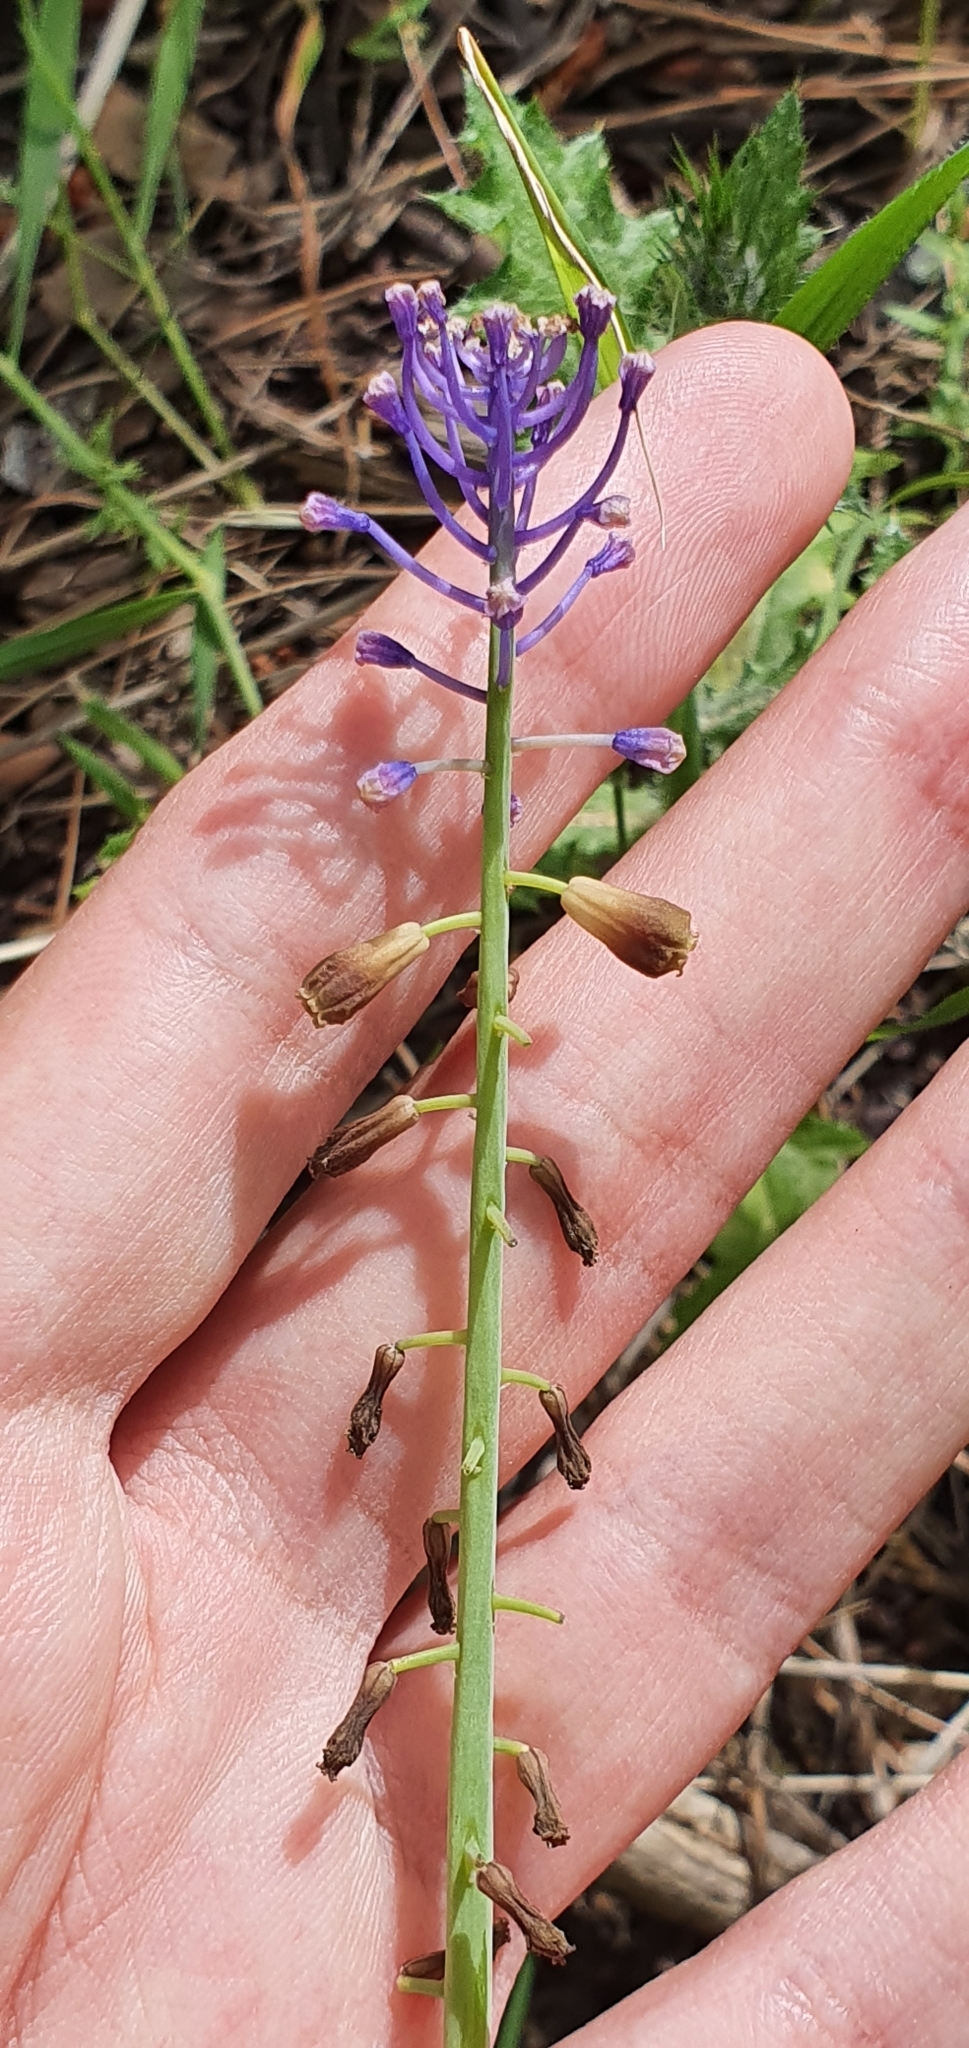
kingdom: Plantae
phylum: Tracheophyta
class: Liliopsida
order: Asparagales
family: Asparagaceae
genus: Muscari
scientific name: Muscari comosum
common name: Tassel hyacinth
